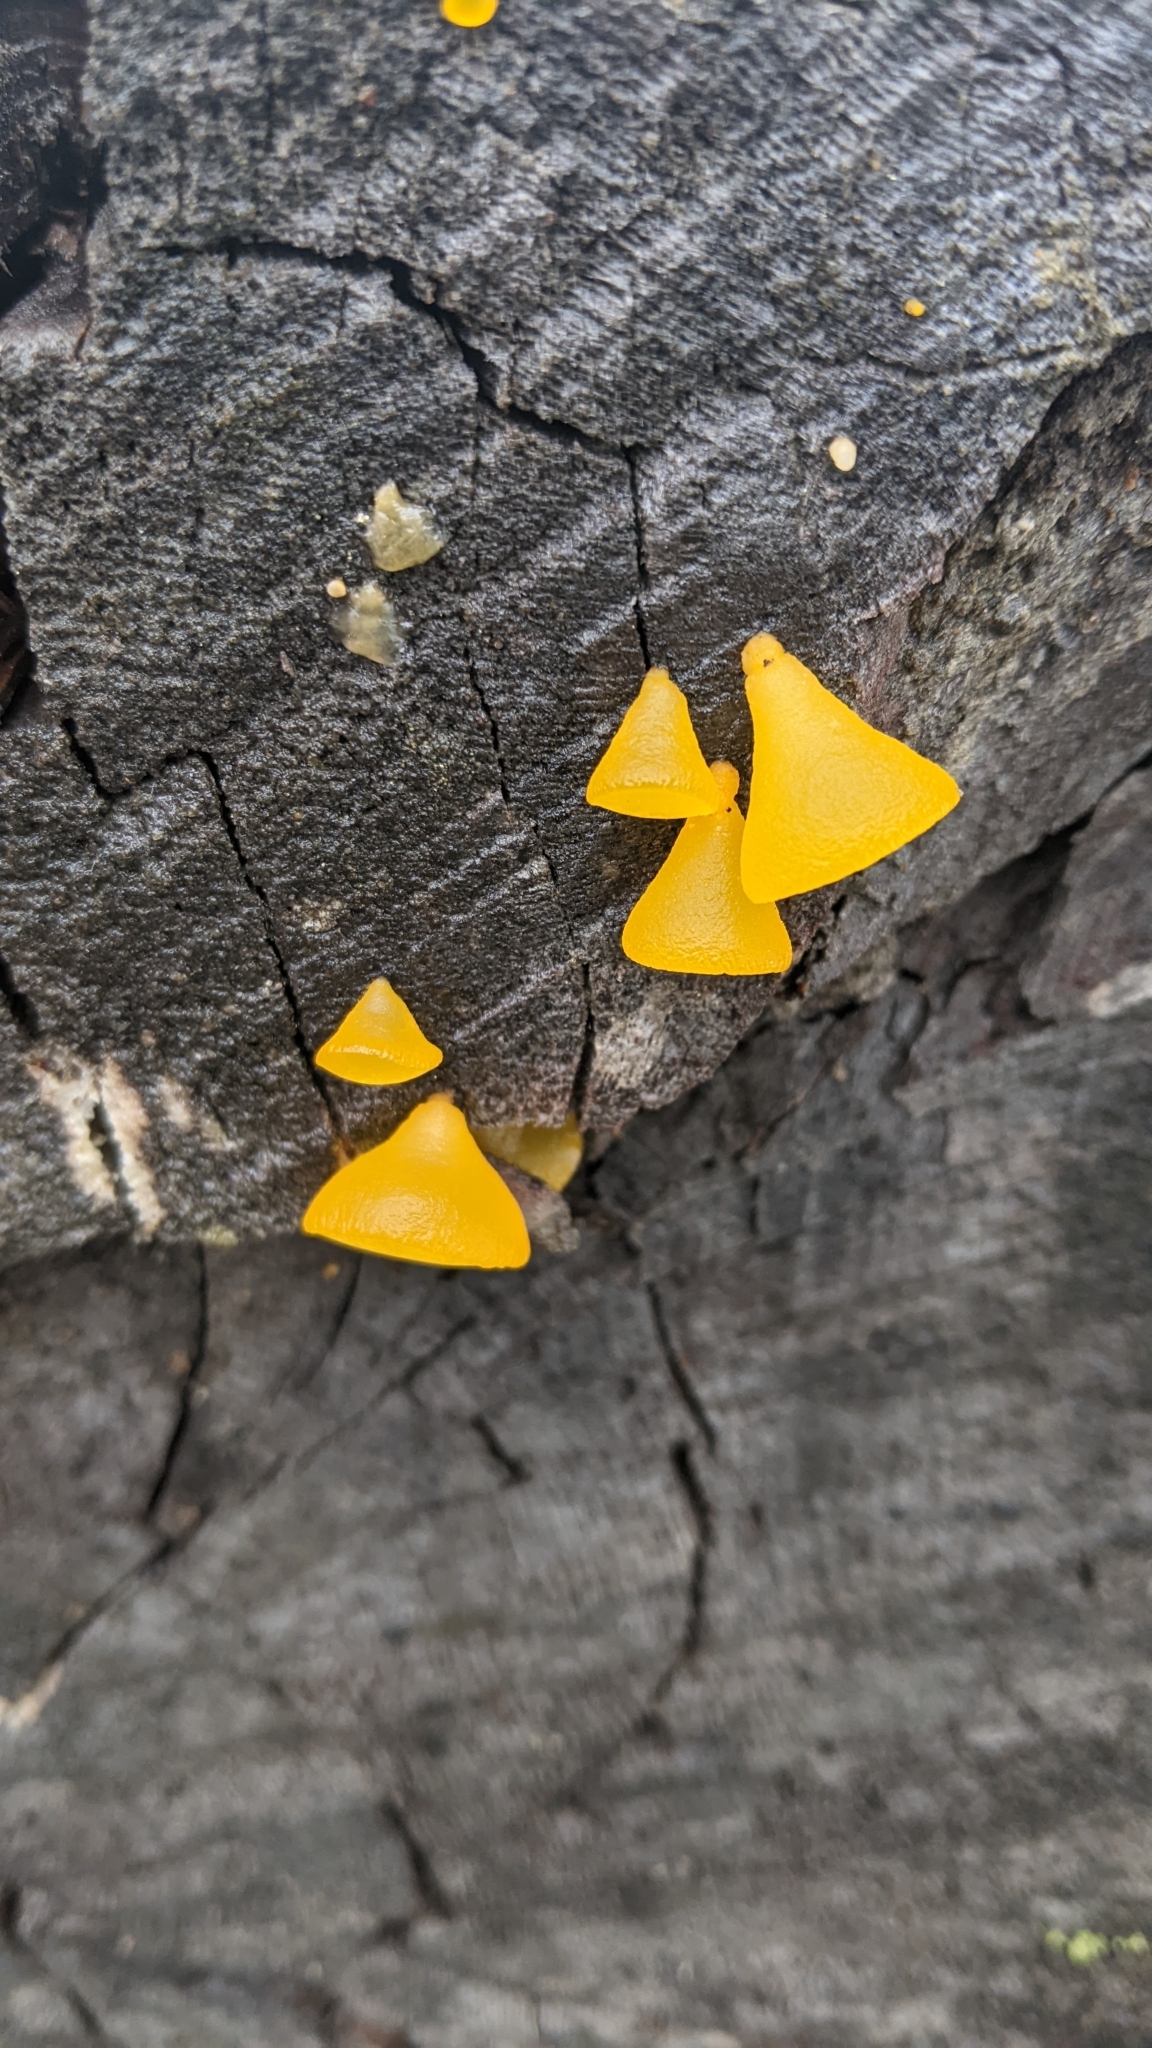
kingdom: Fungi
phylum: Basidiomycota
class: Dacrymycetes
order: Dacrymycetales
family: Dacrymycetaceae
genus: Guepiniopsis
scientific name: Guepiniopsis alpina
